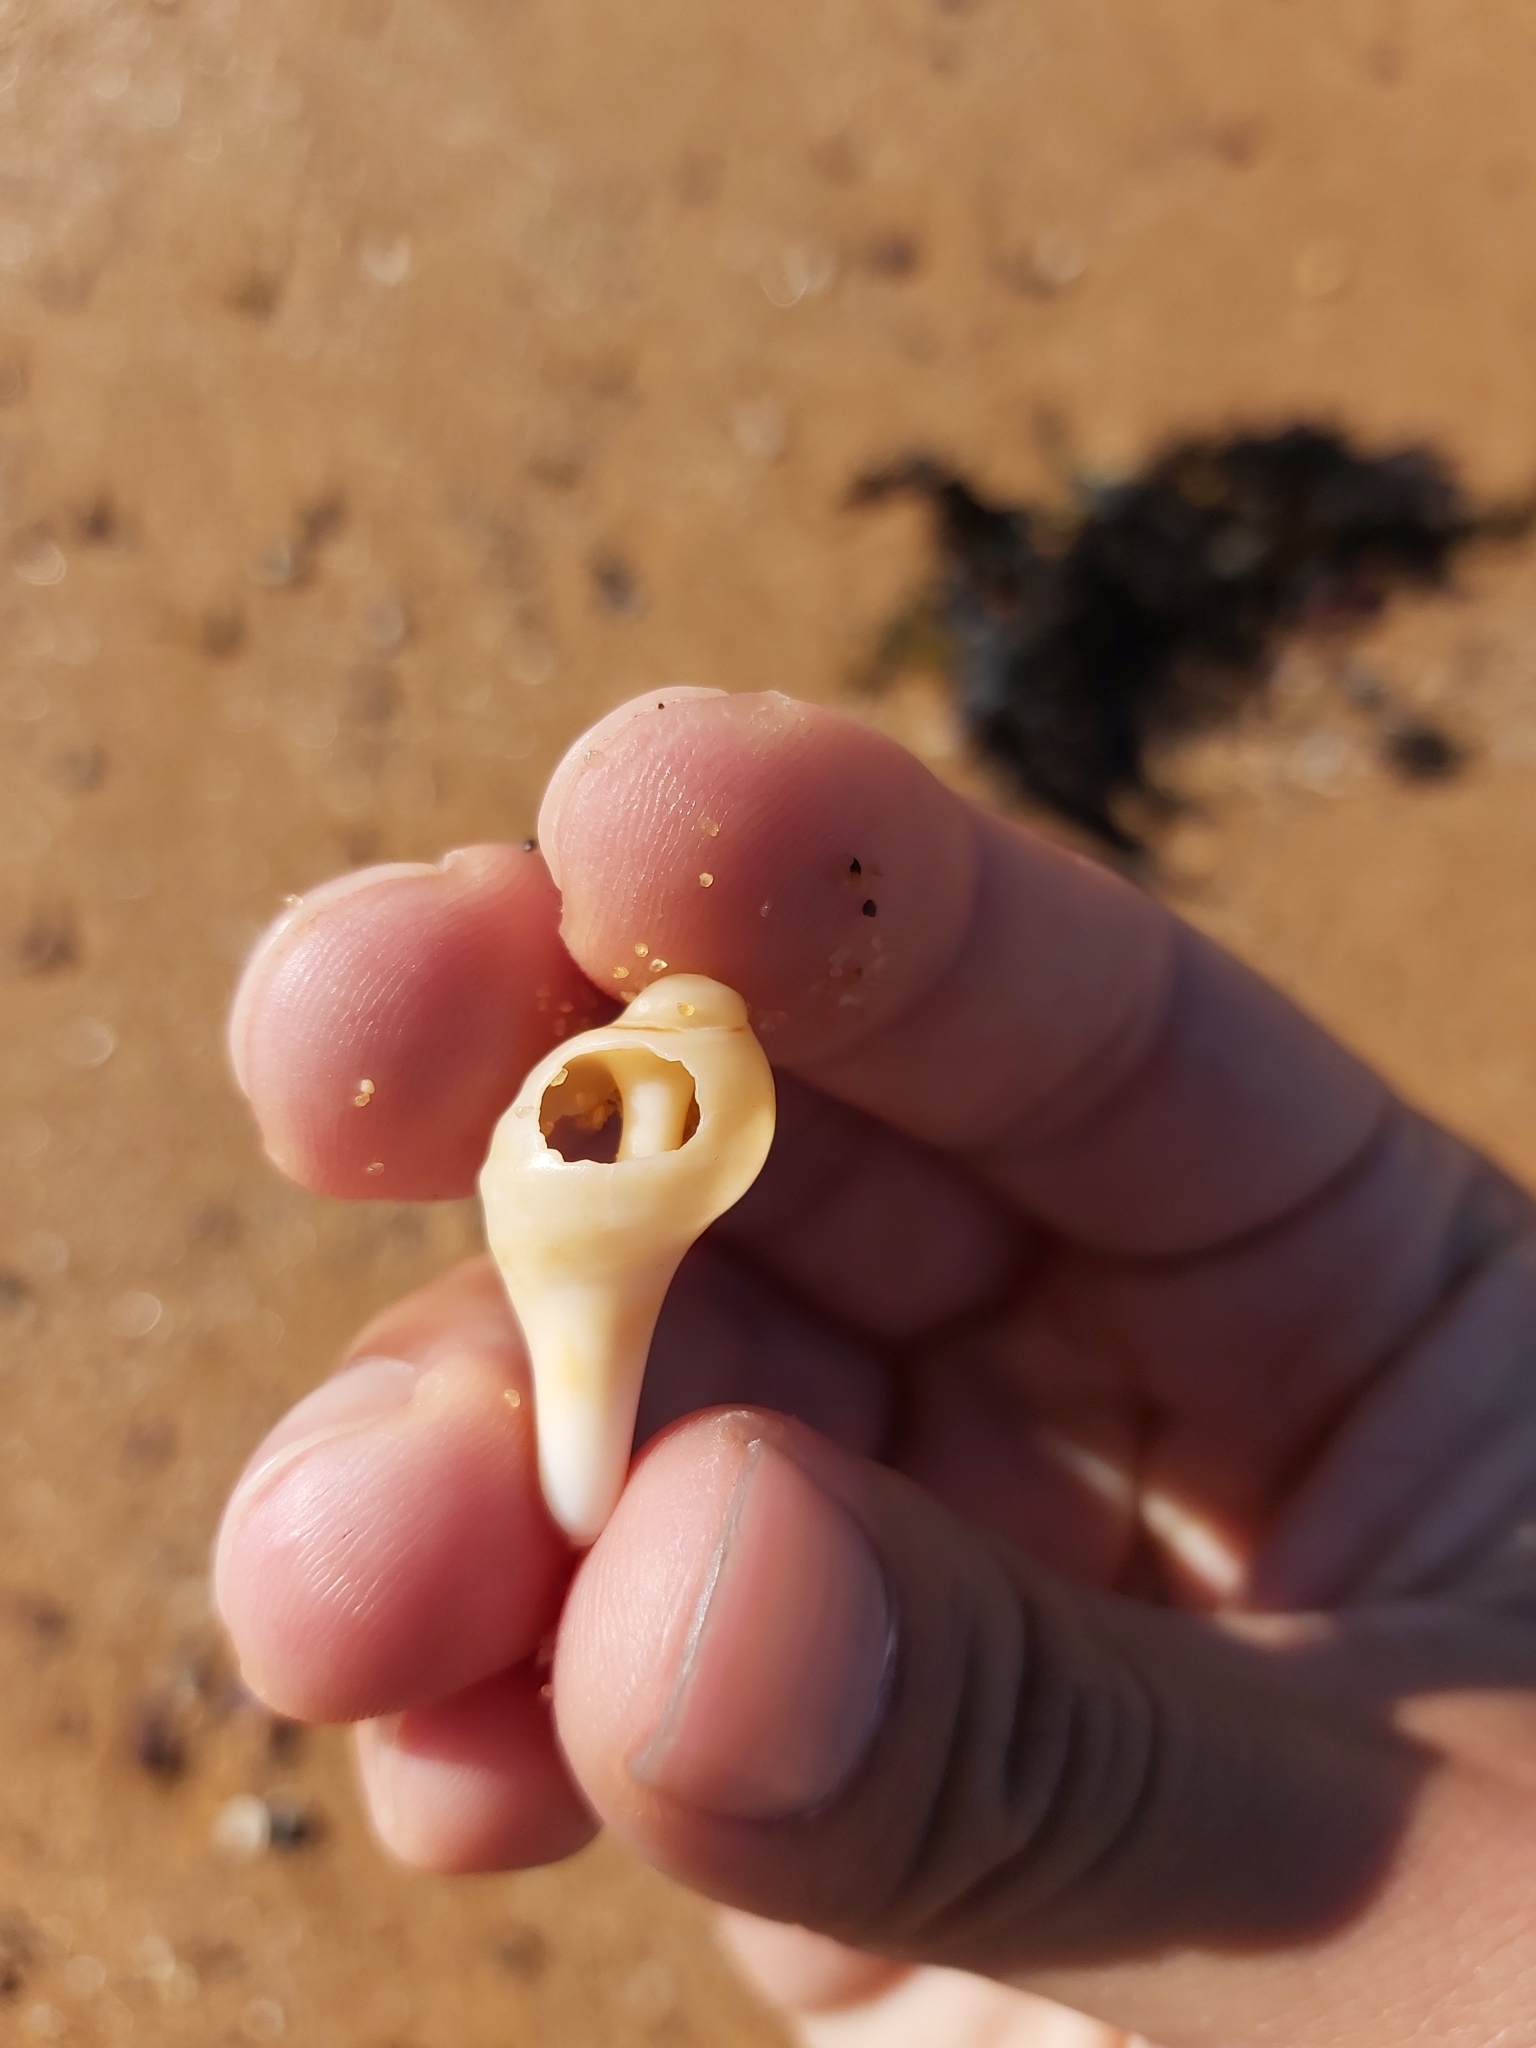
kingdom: Animalia
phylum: Mollusca
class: Gastropoda
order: Neogastropoda
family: Muricidae
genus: Dicathais
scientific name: Dicathais orbita
